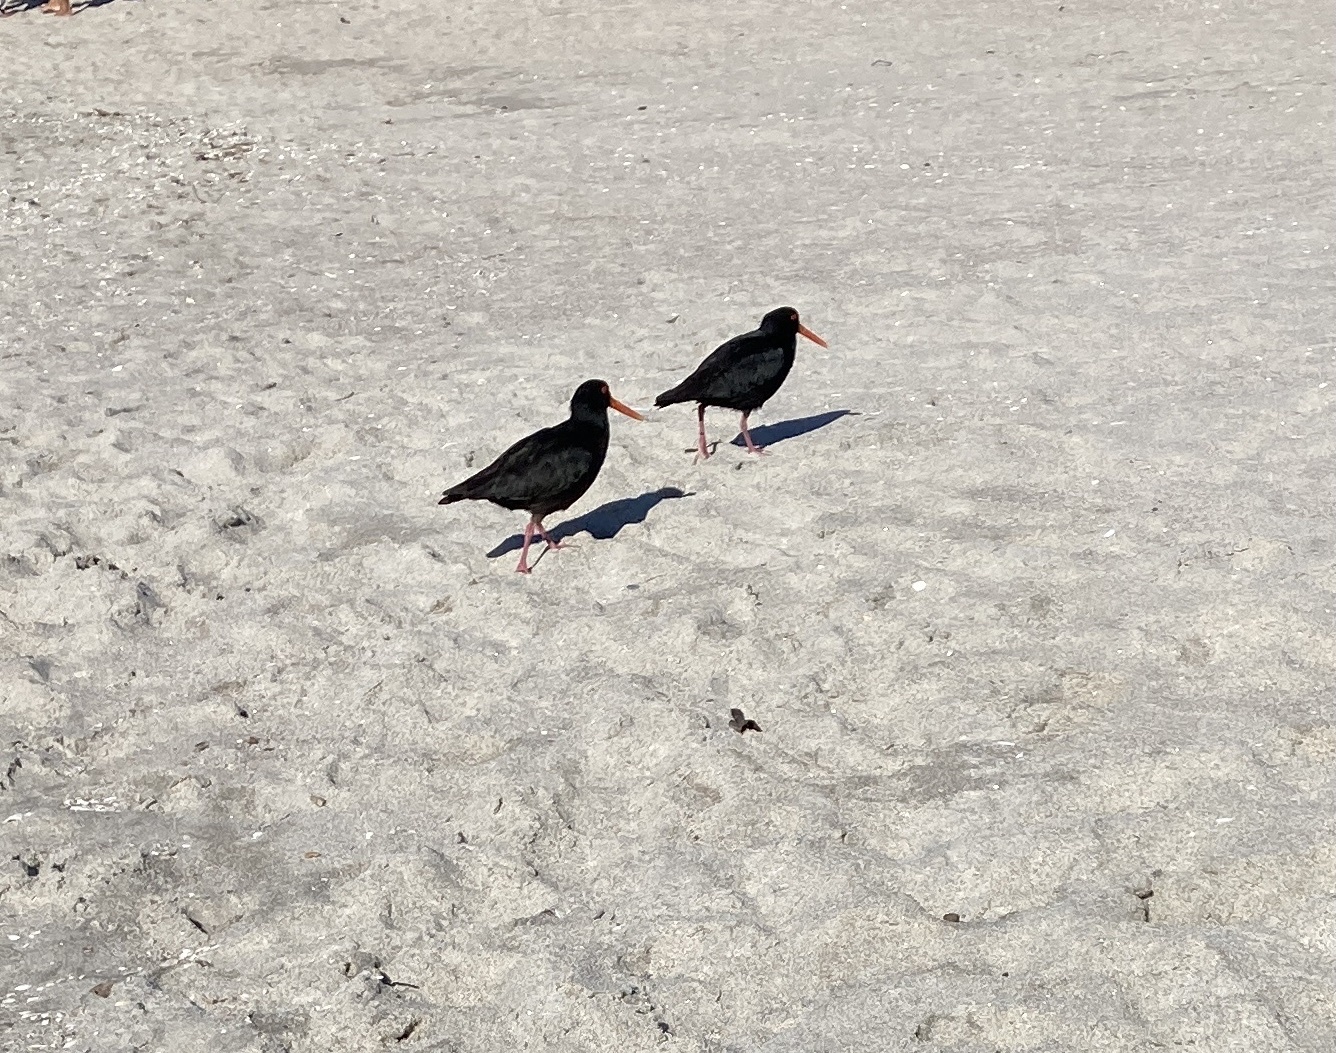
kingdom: Animalia
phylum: Chordata
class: Aves
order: Charadriiformes
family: Haematopodidae
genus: Haematopus
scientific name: Haematopus unicolor
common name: Variable oystercatcher
